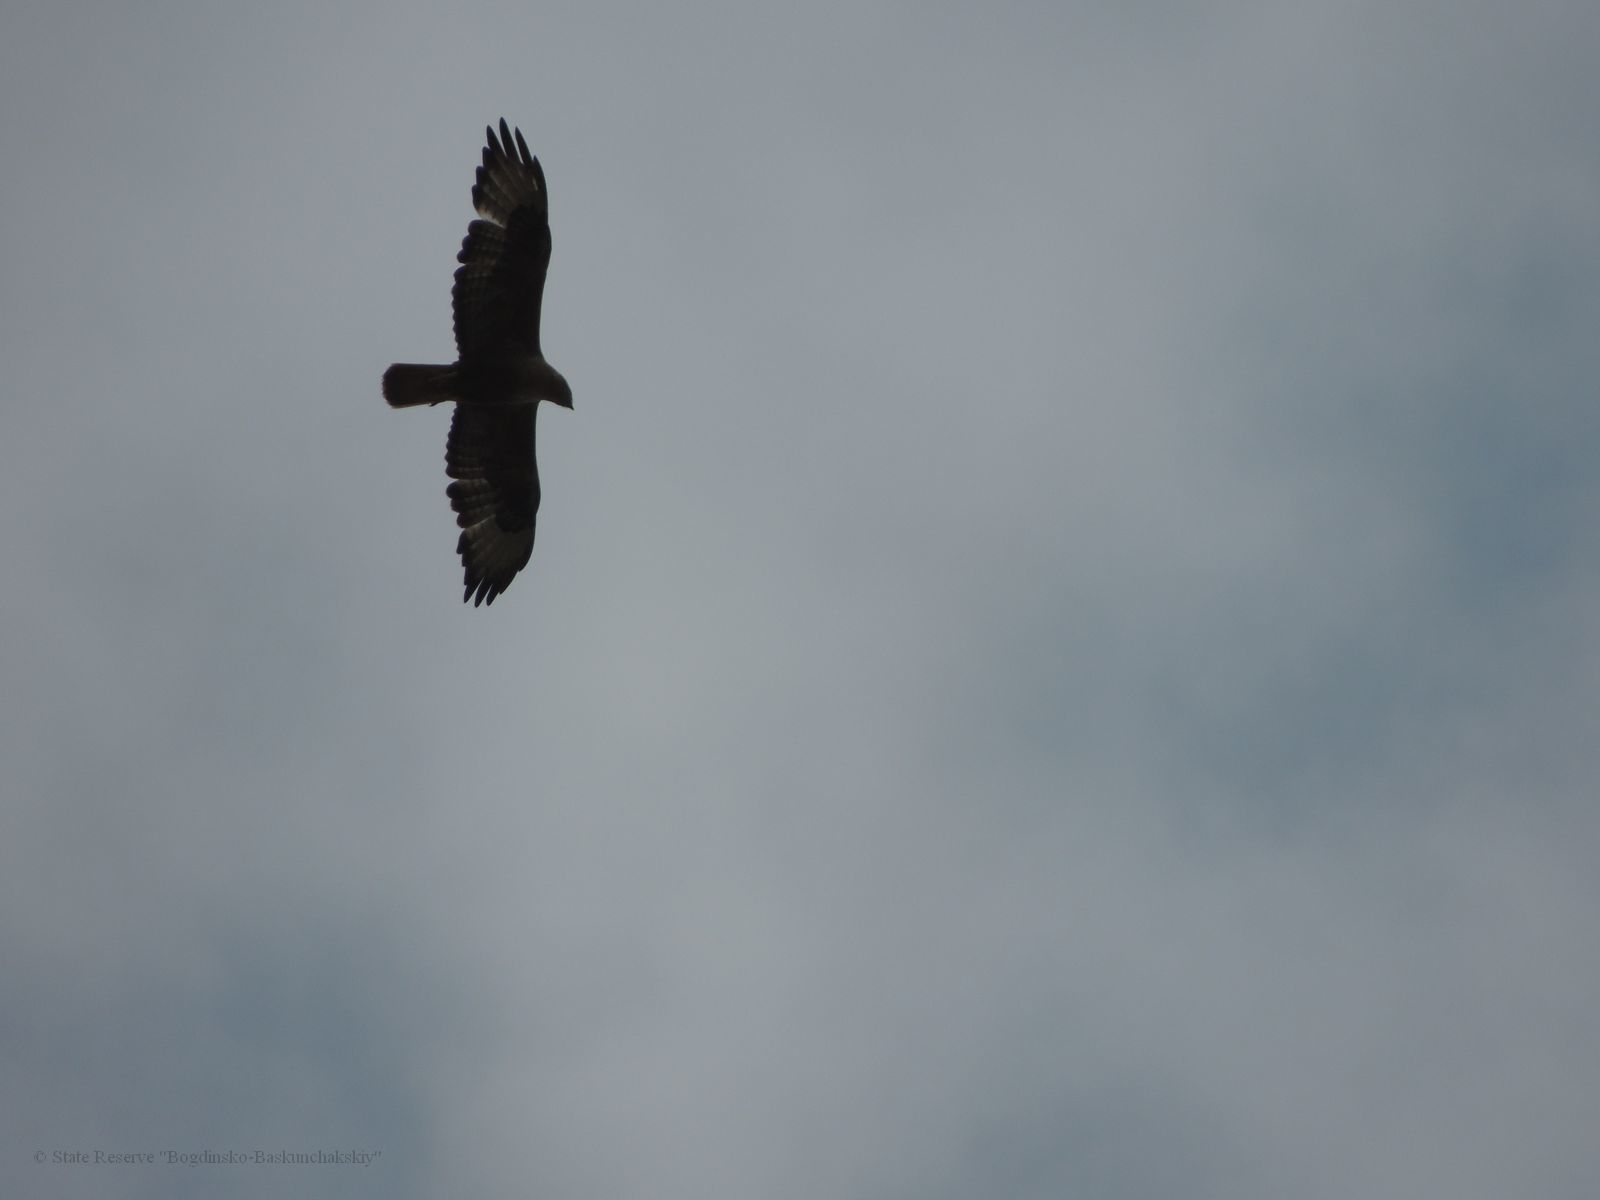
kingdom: Animalia
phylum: Chordata
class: Aves
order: Accipitriformes
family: Accipitridae
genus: Buteo
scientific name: Buteo rufinus
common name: Long-legged buzzard
